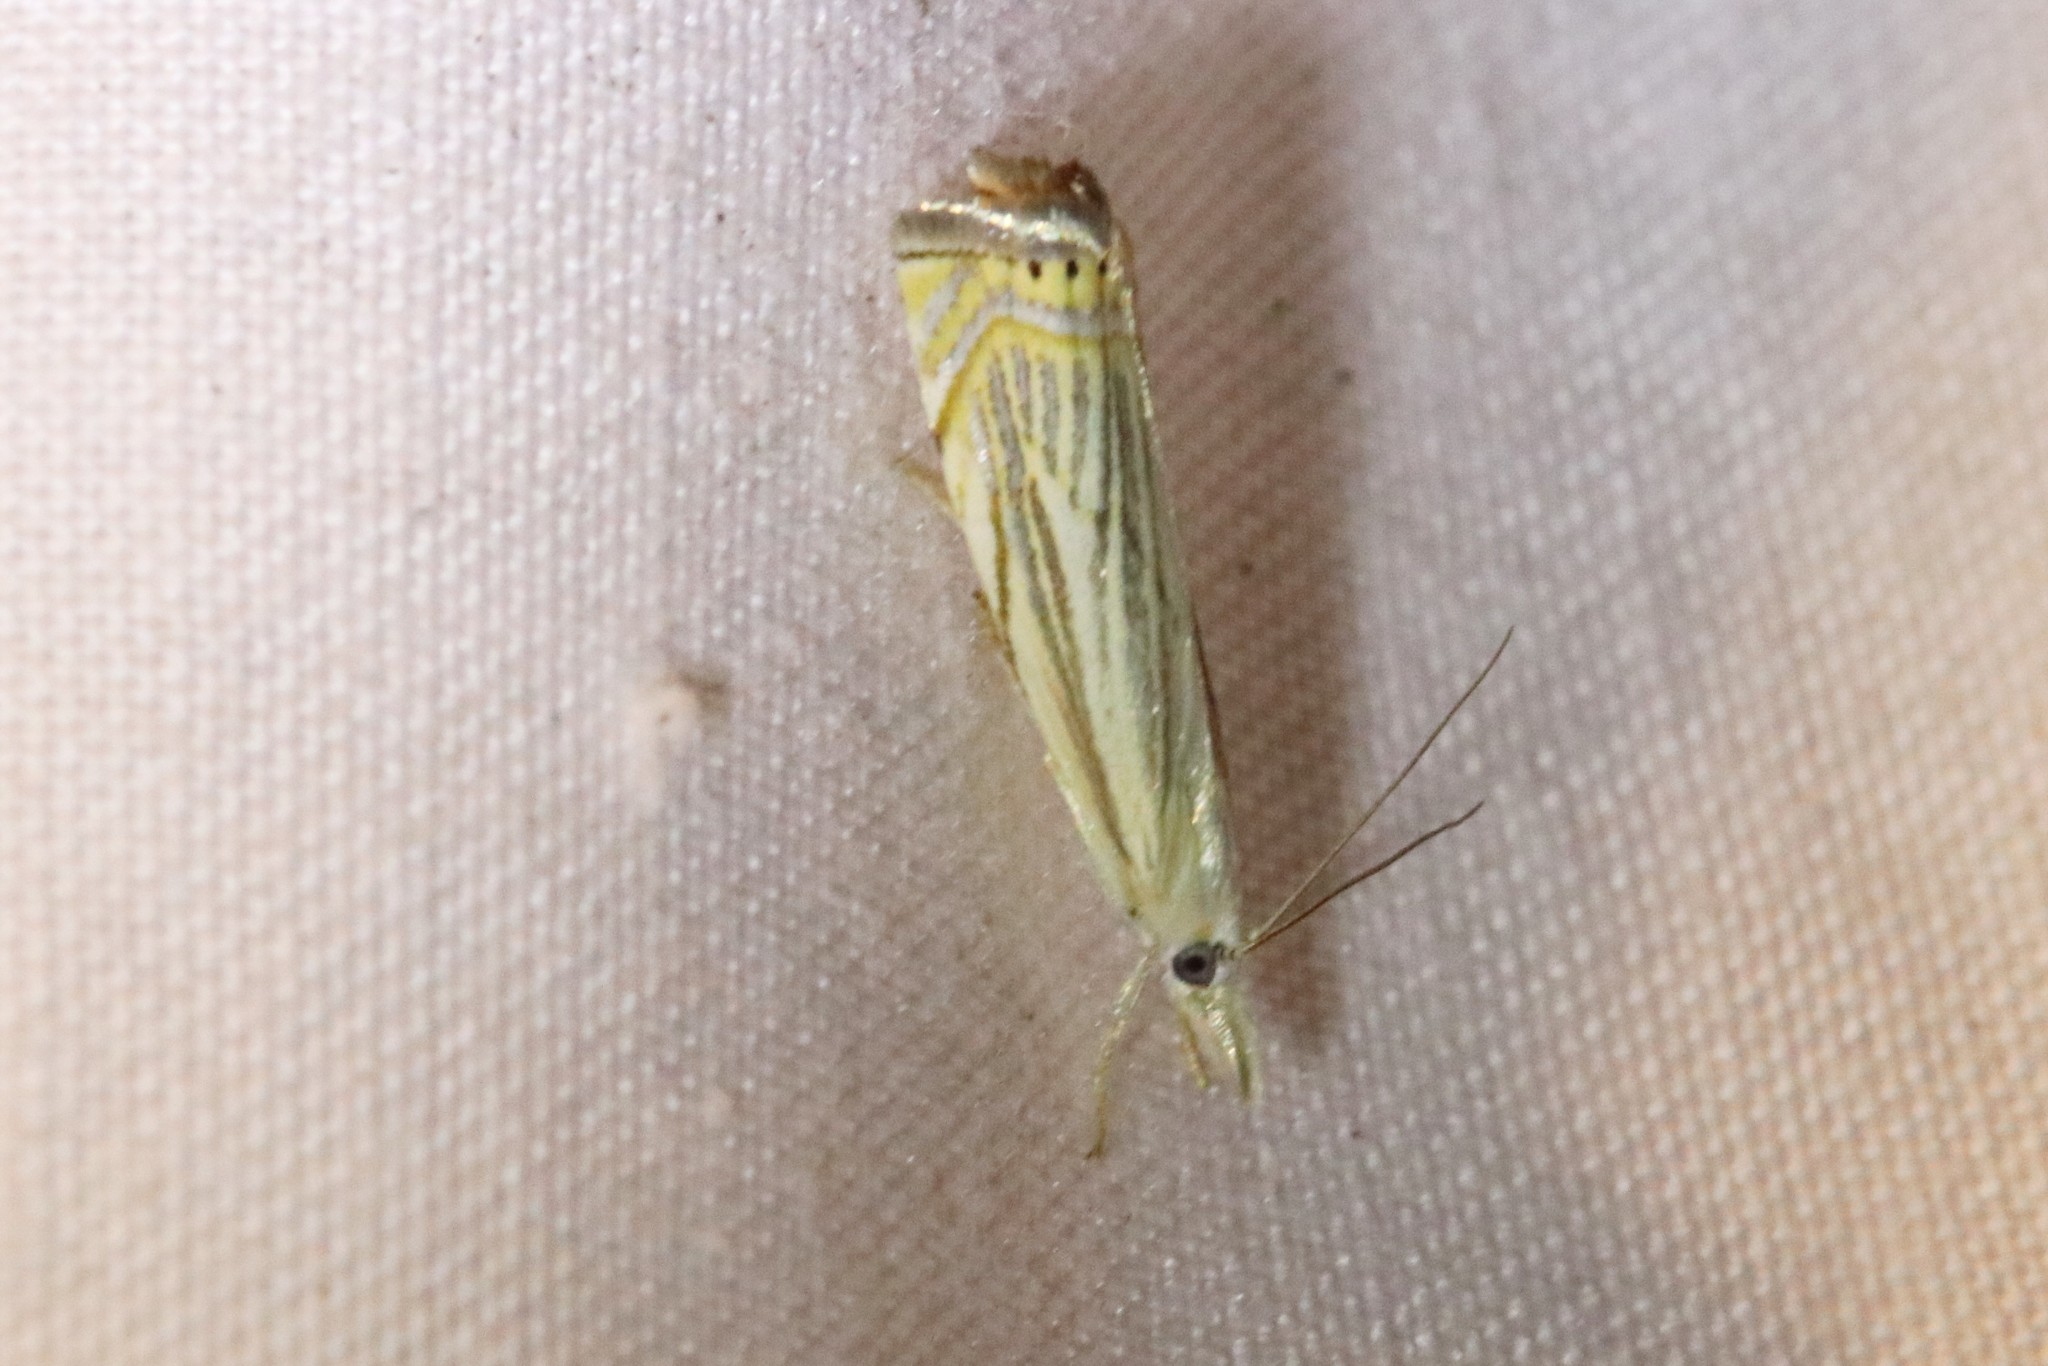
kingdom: Animalia
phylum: Arthropoda
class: Insecta
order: Lepidoptera
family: Crambidae
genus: Chrysoteuchia
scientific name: Chrysoteuchia topiarius
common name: Topiary grass-veneer
